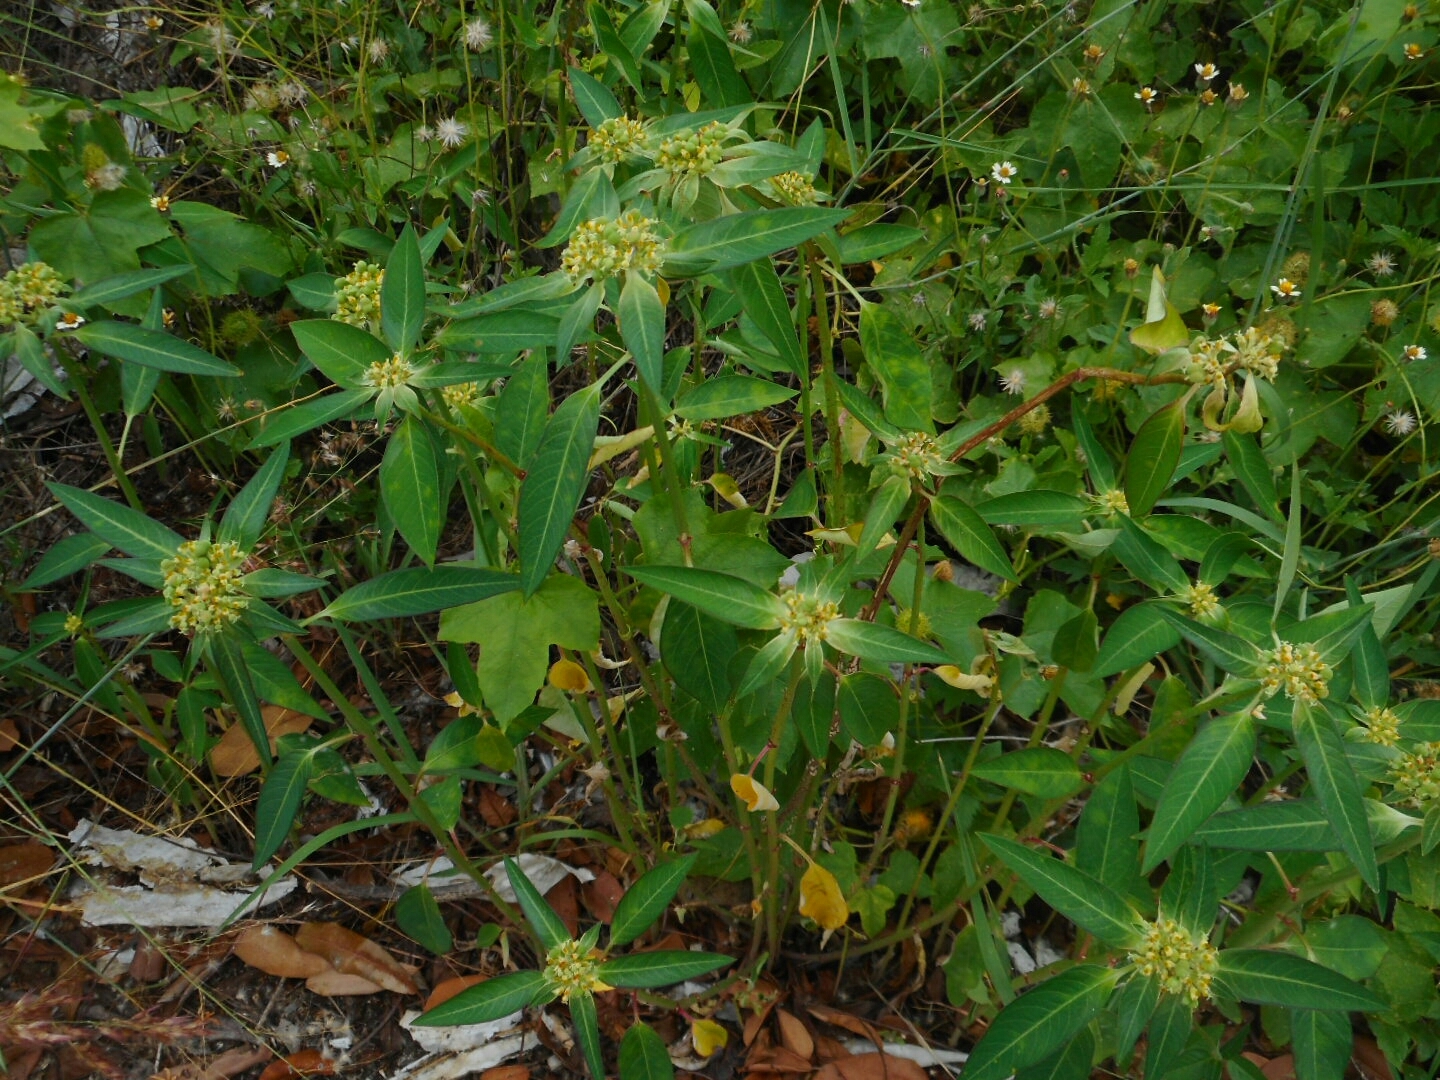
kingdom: Plantae
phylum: Tracheophyta
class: Magnoliopsida
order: Malpighiales
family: Euphorbiaceae
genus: Euphorbia
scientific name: Euphorbia heterophylla
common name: Mexican fireplant
